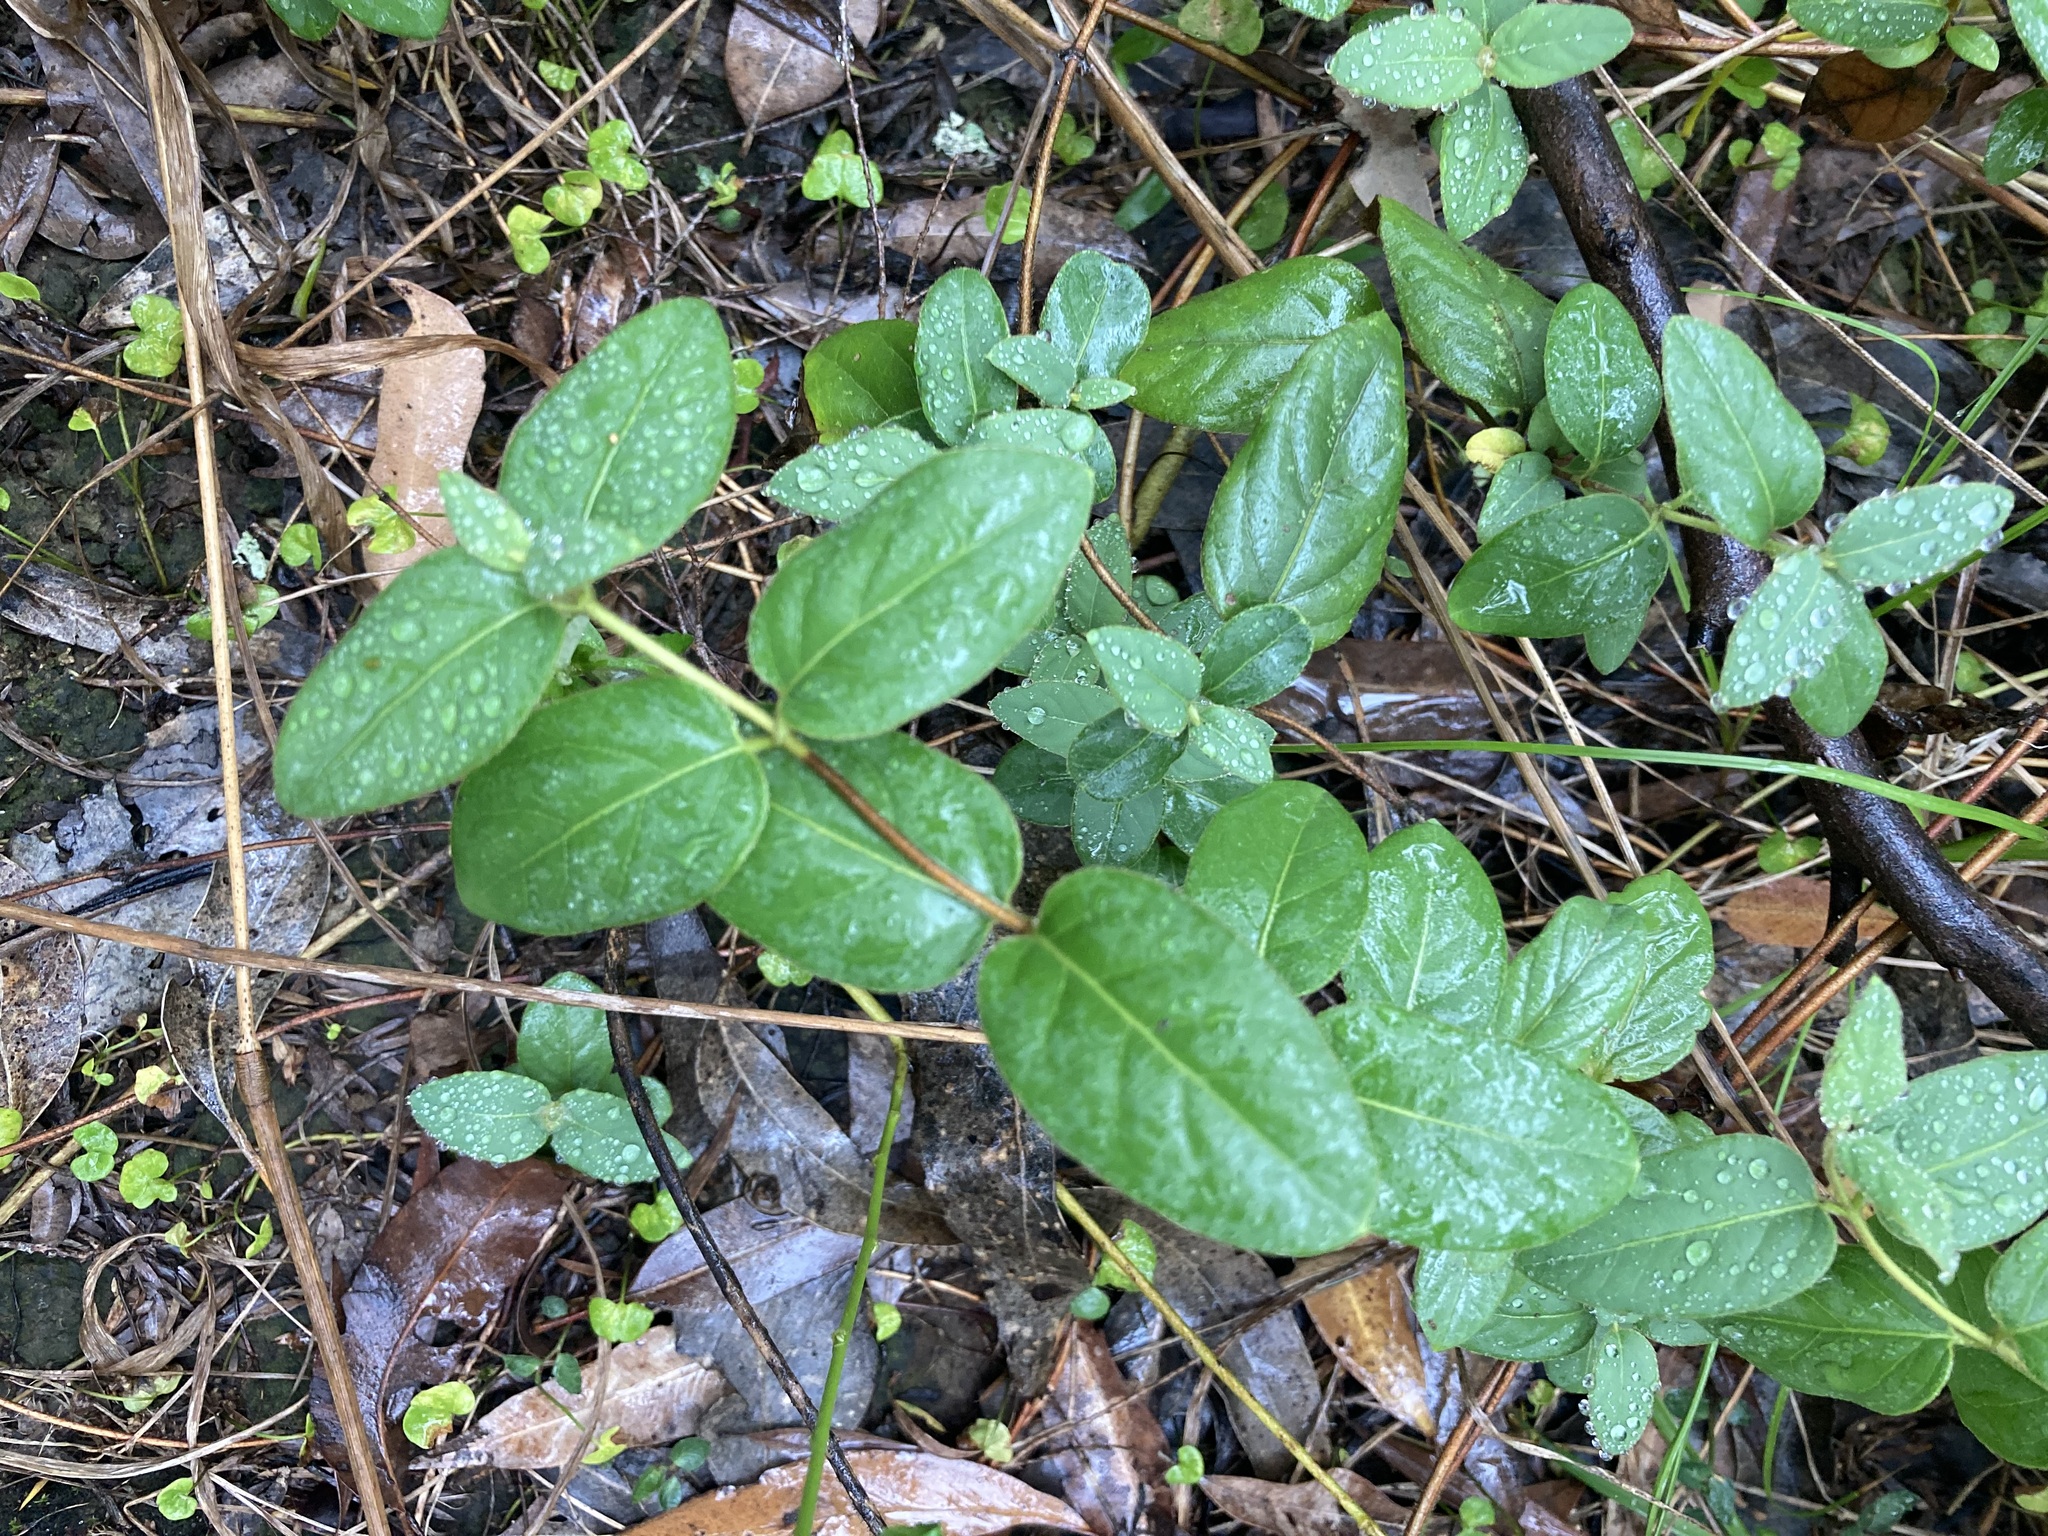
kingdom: Plantae
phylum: Tracheophyta
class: Magnoliopsida
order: Dipsacales
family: Caprifoliaceae
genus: Lonicera
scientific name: Lonicera japonica
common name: Japanese honeysuckle
